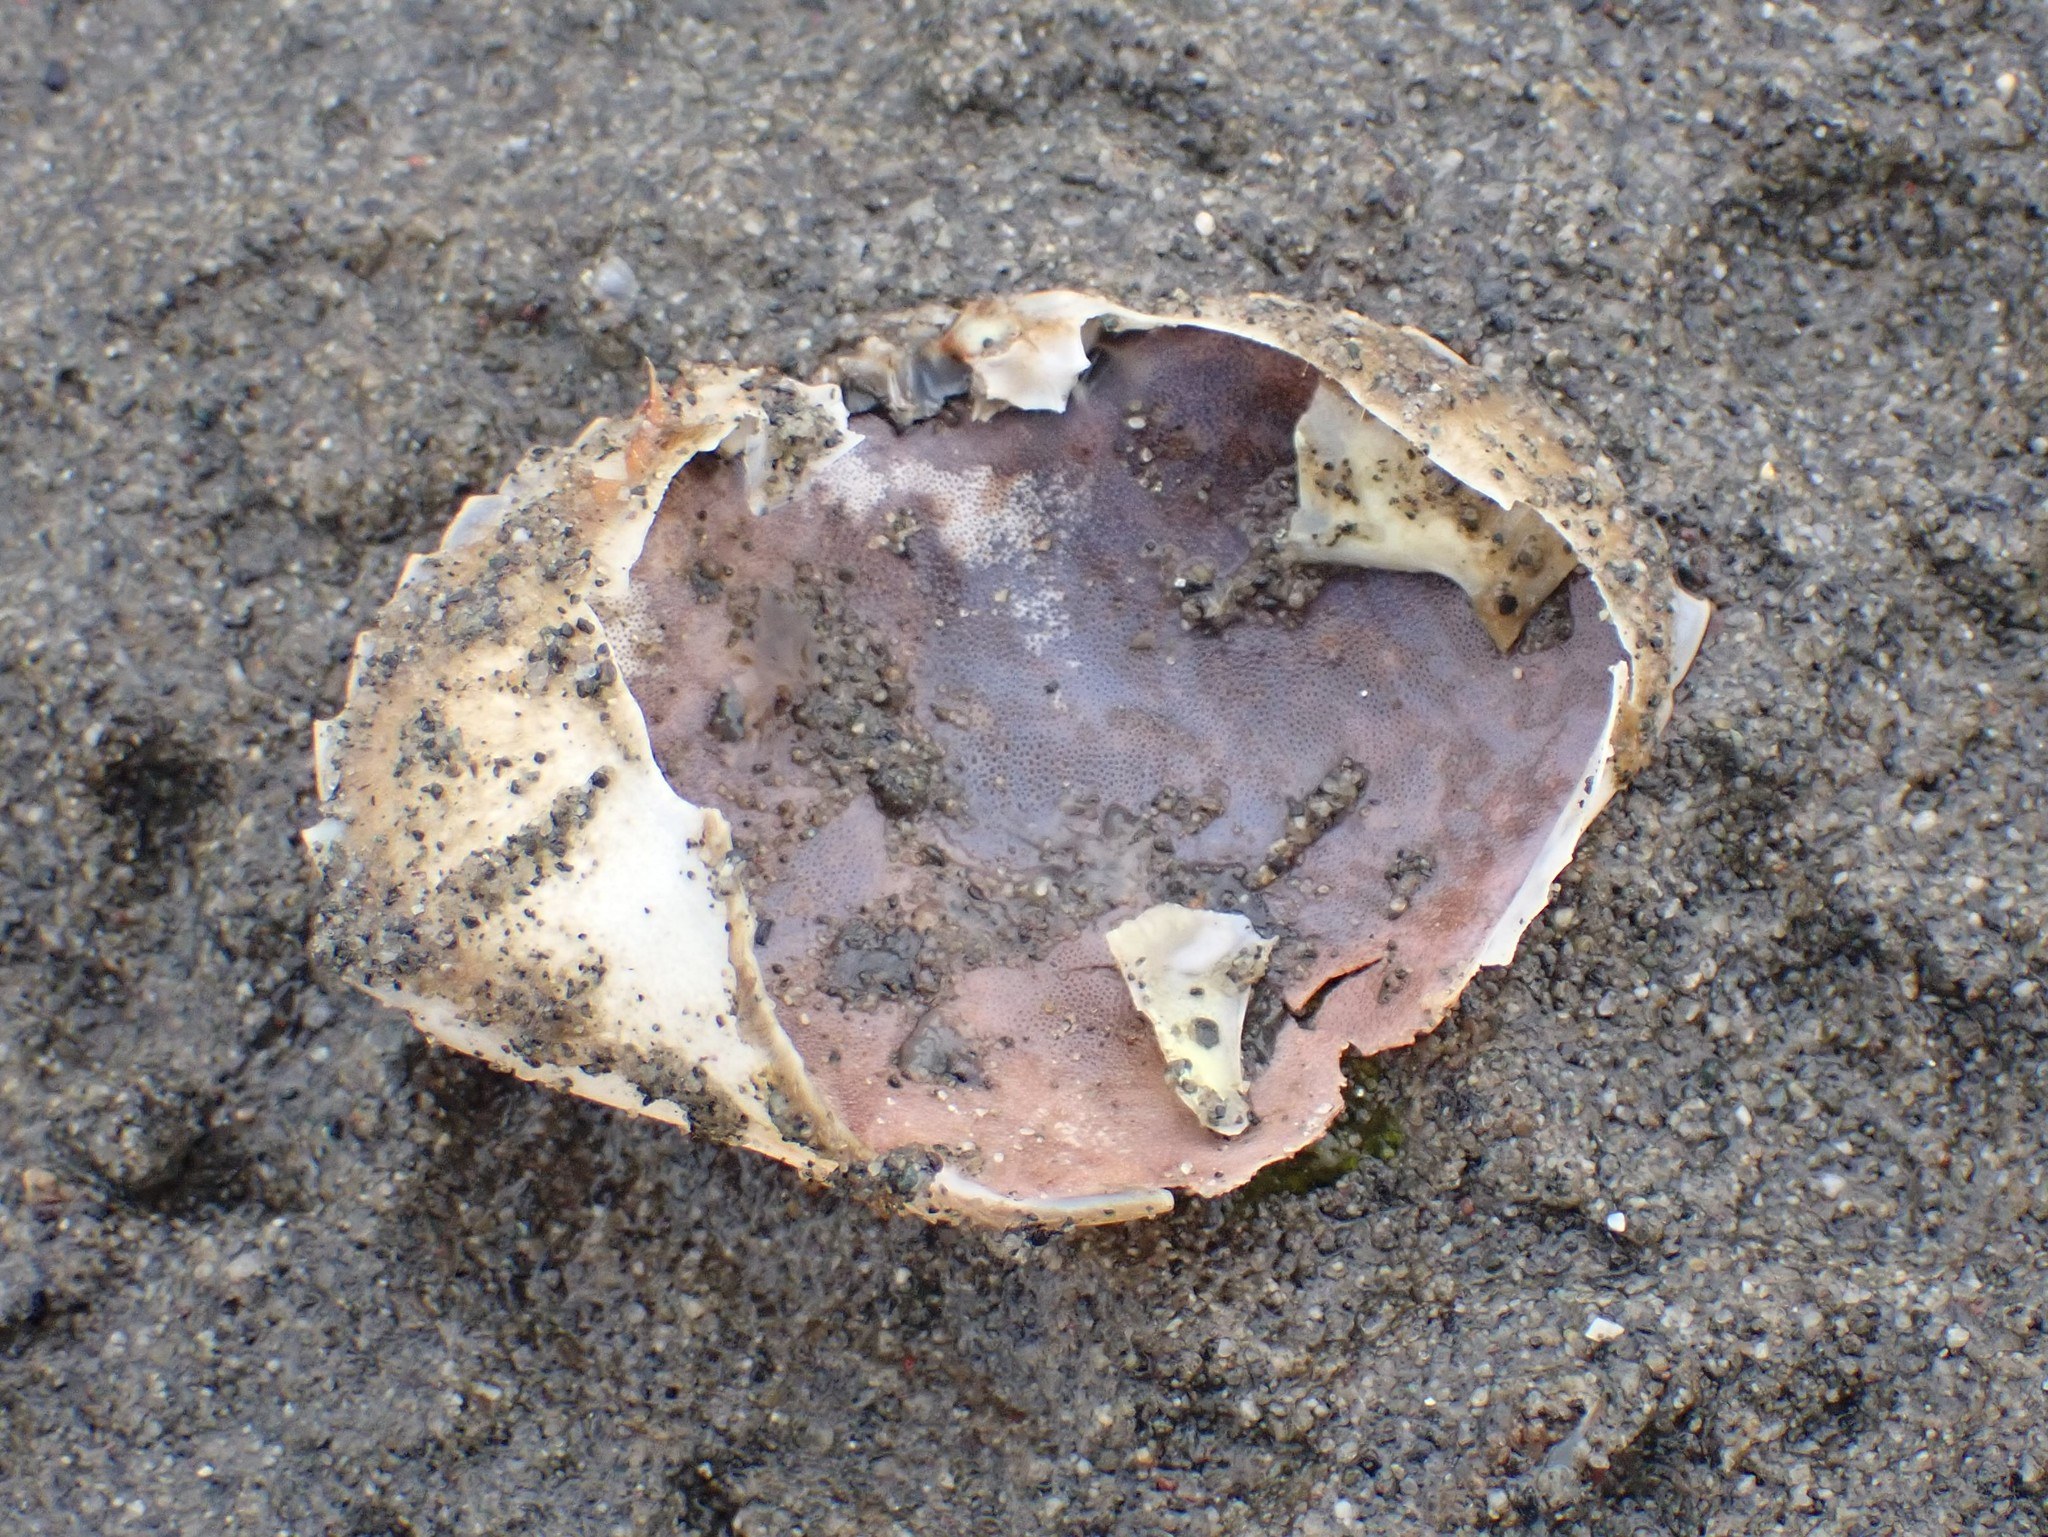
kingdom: Animalia
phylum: Arthropoda
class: Malacostraca
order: Decapoda
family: Cancridae
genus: Metacarcinus
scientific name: Metacarcinus gracilis
